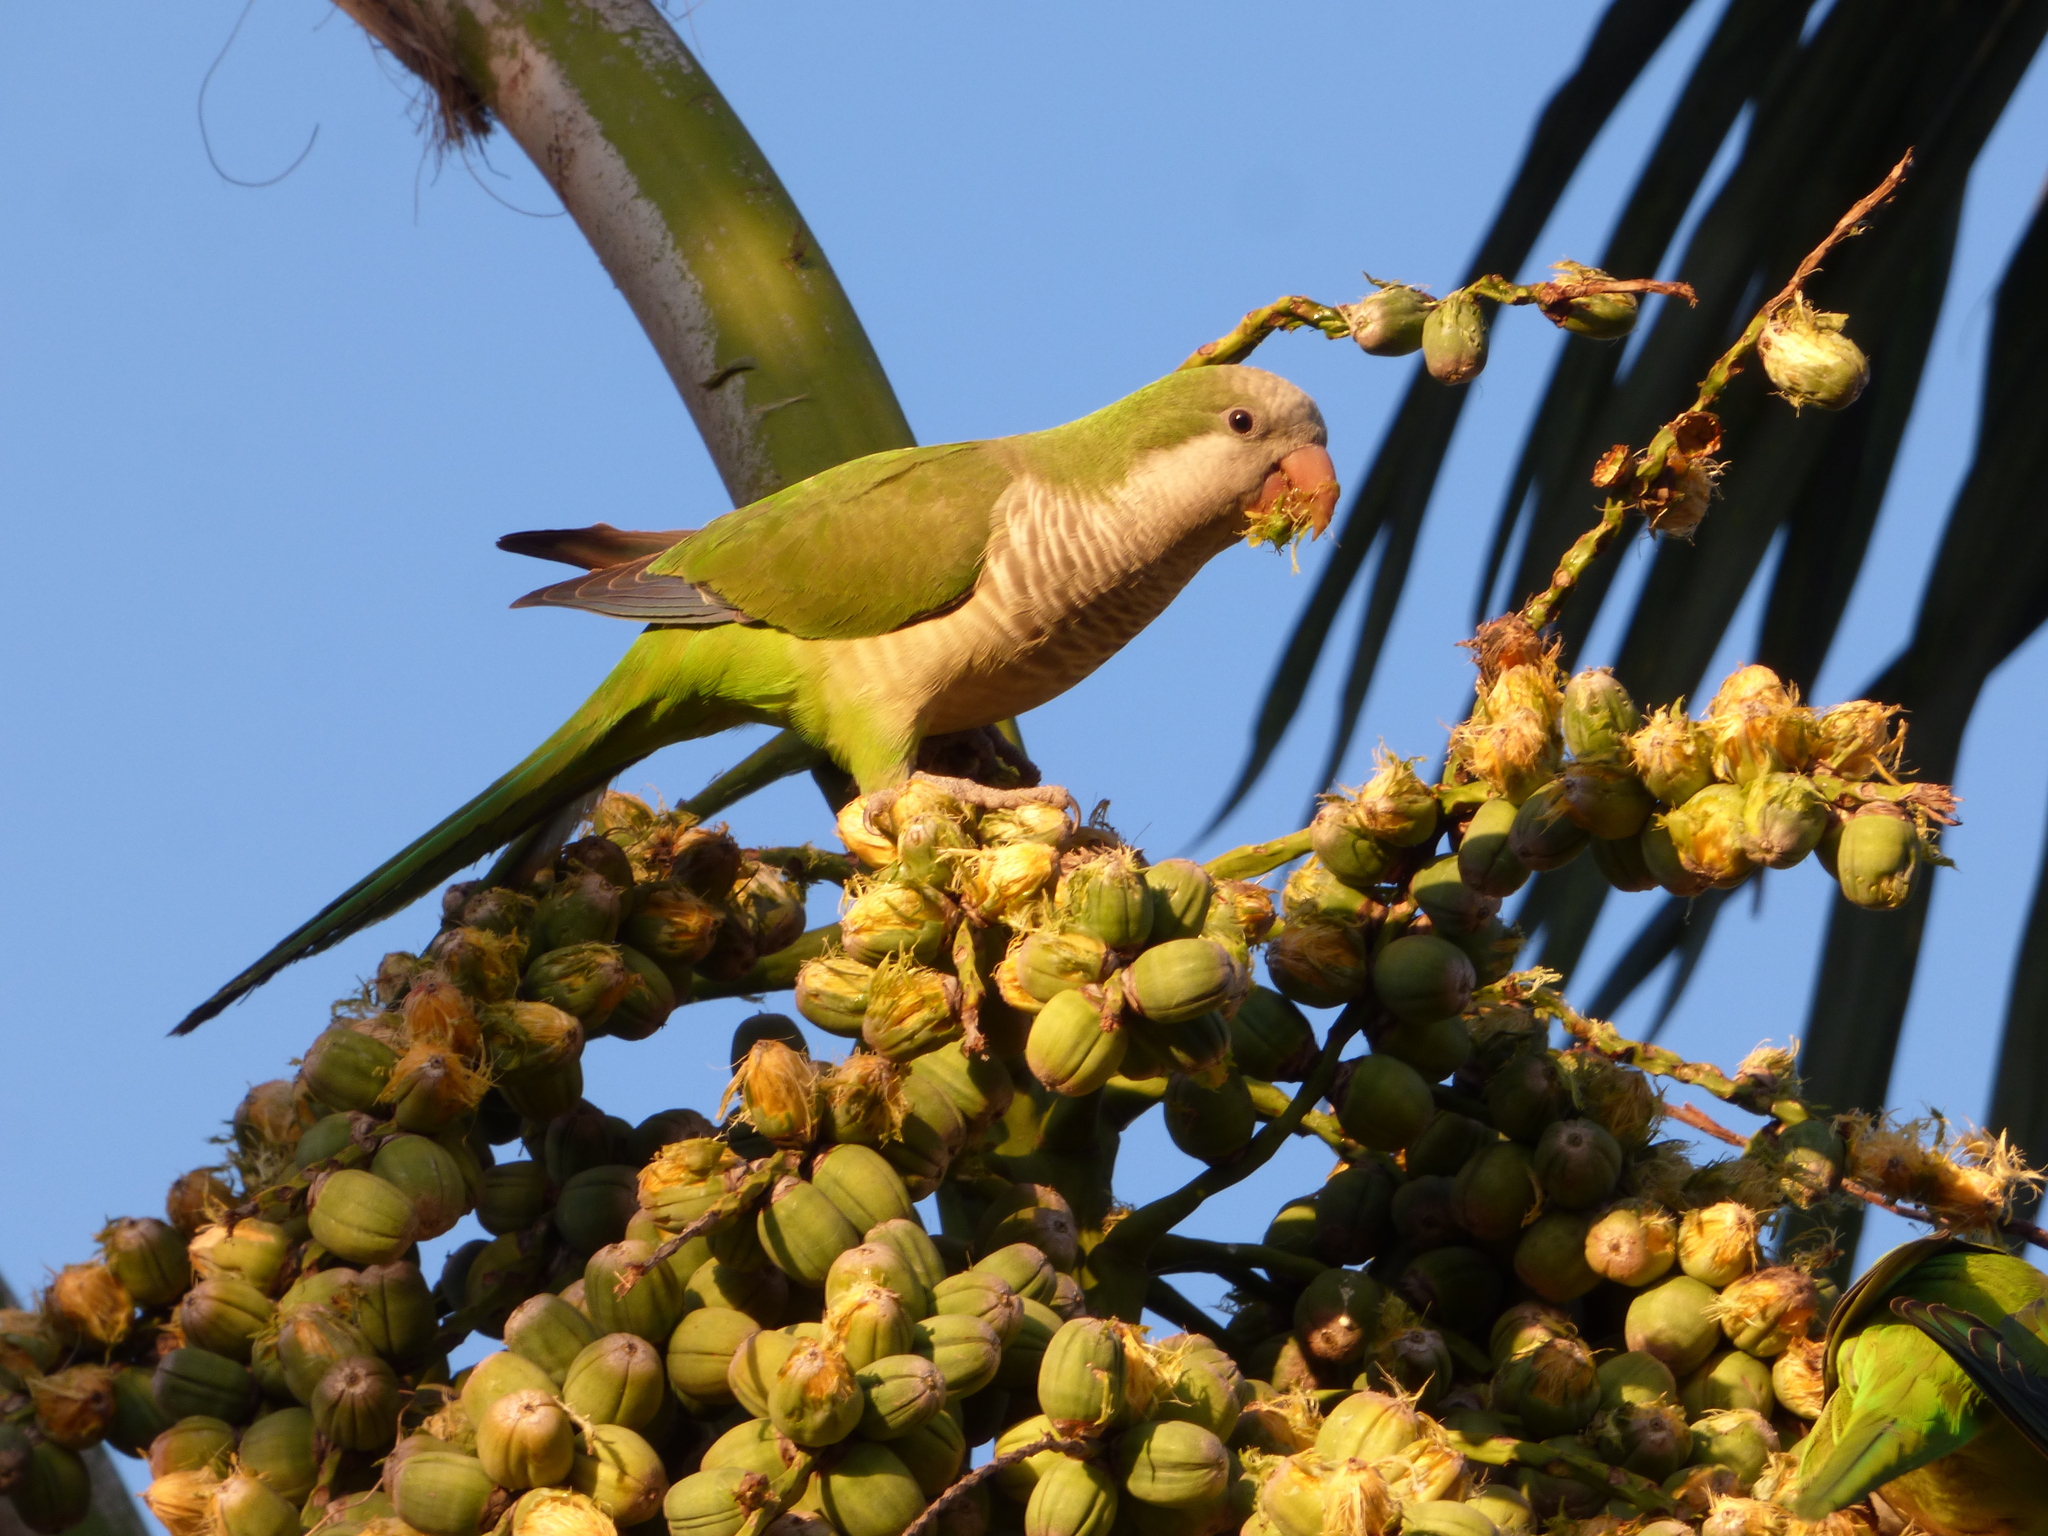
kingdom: Animalia
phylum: Chordata
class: Aves
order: Psittaciformes
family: Psittacidae
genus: Myiopsitta
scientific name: Myiopsitta monachus
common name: Monk parakeet
